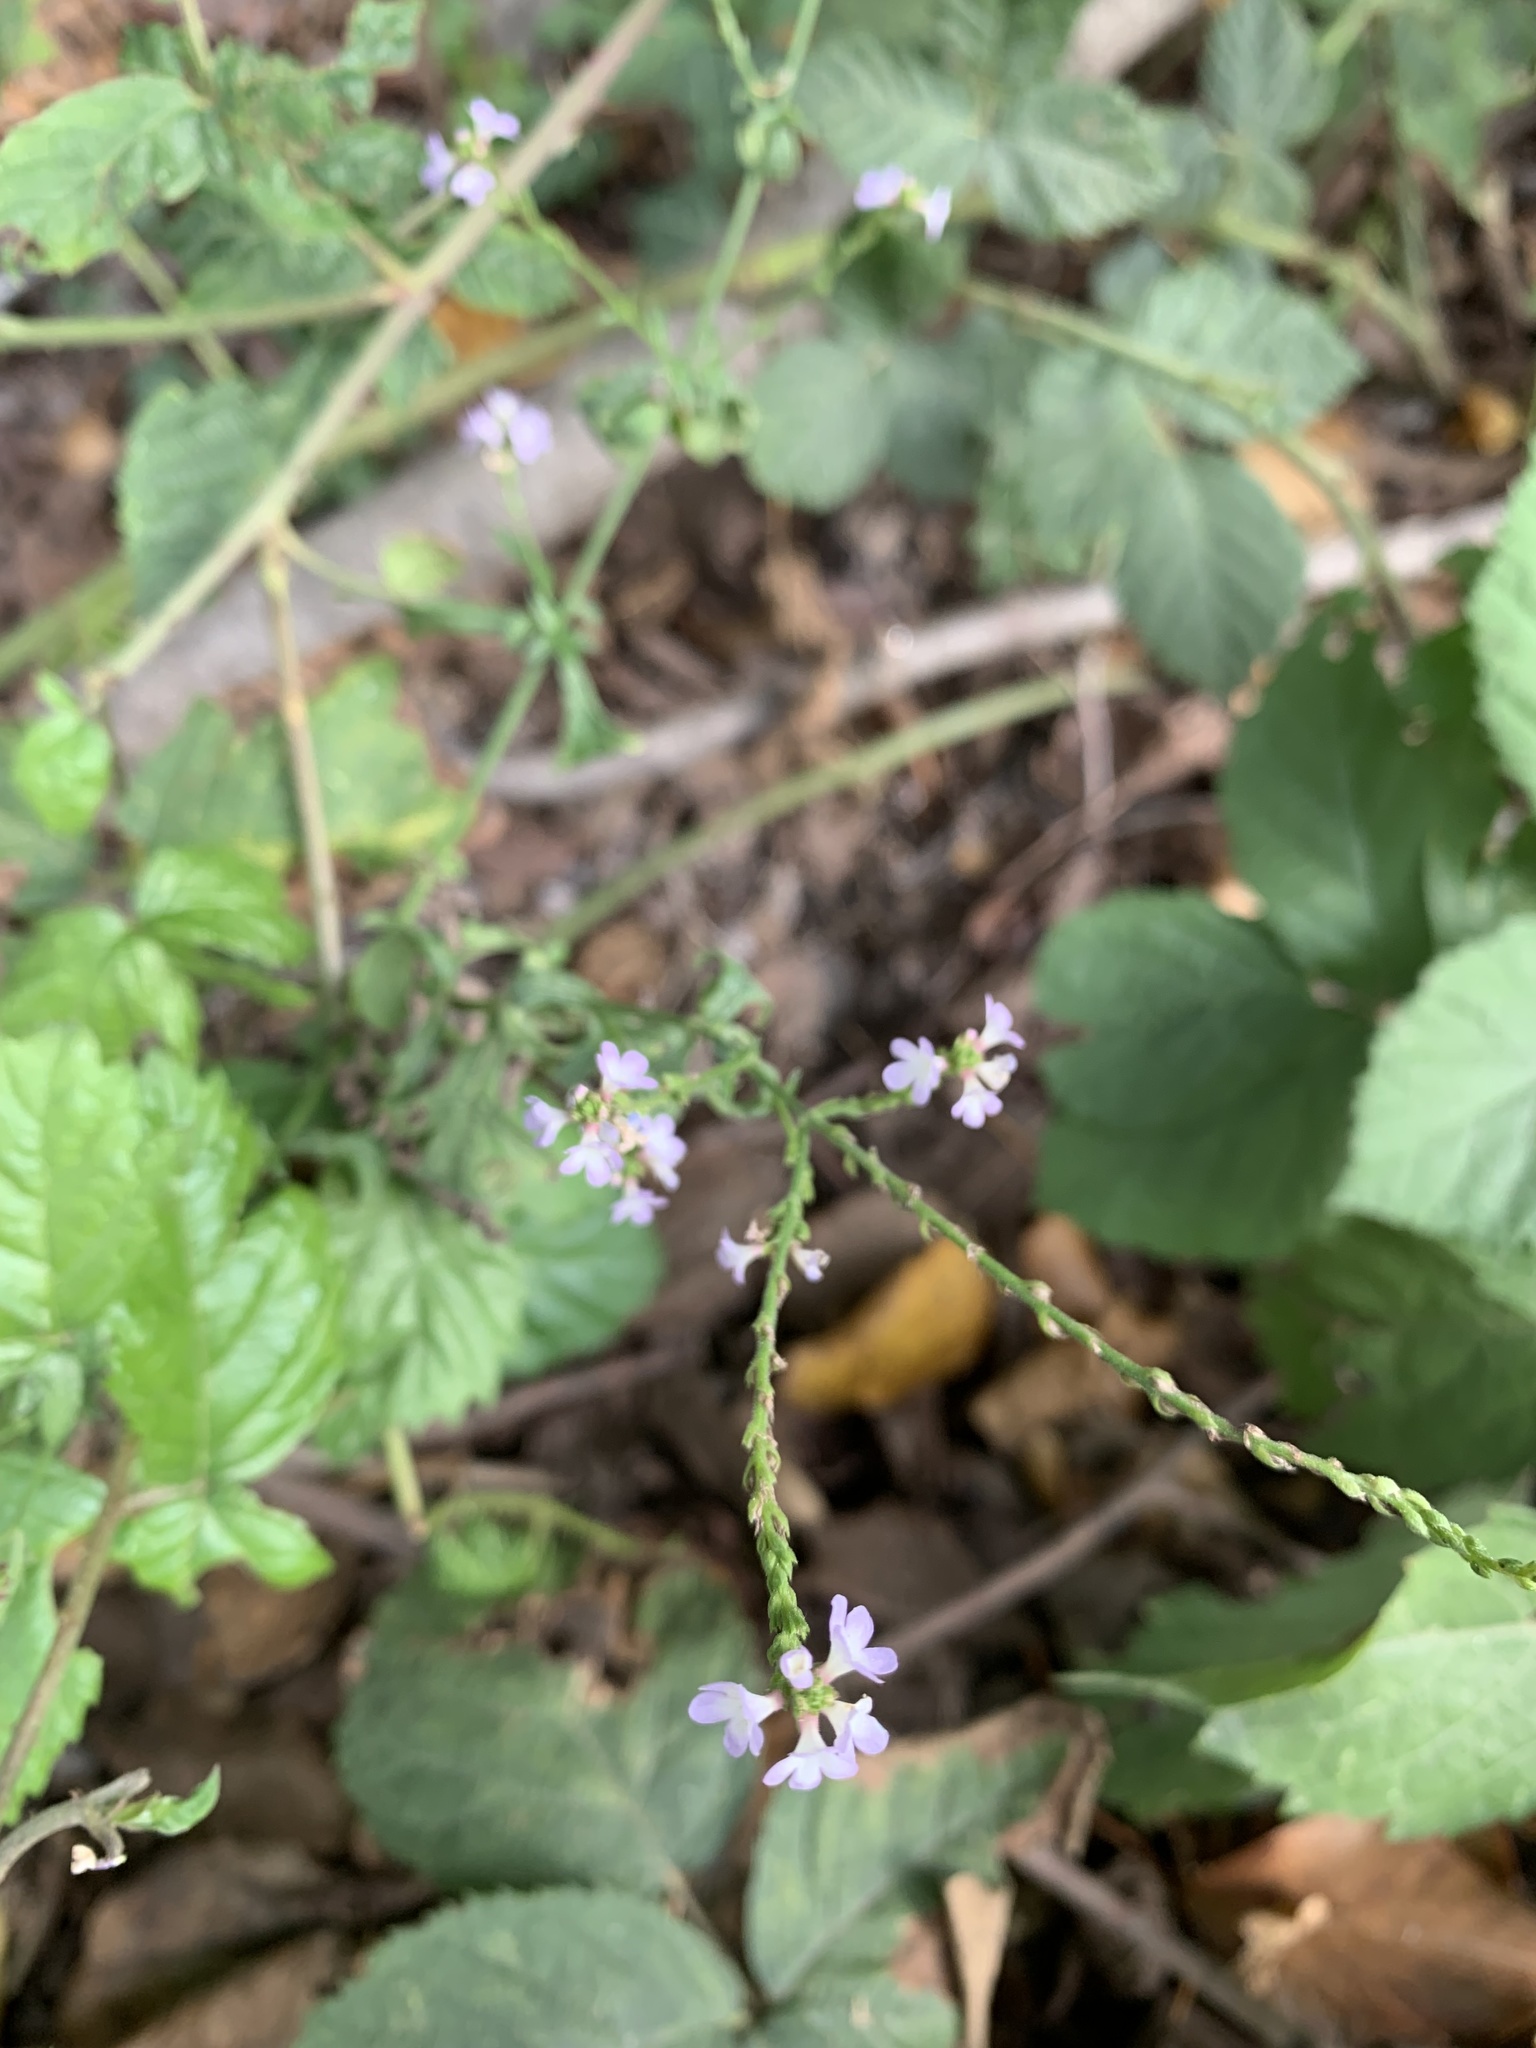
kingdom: Plantae
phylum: Tracheophyta
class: Magnoliopsida
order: Lamiales
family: Verbenaceae
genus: Verbena
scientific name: Verbena officinalis
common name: Vervain
